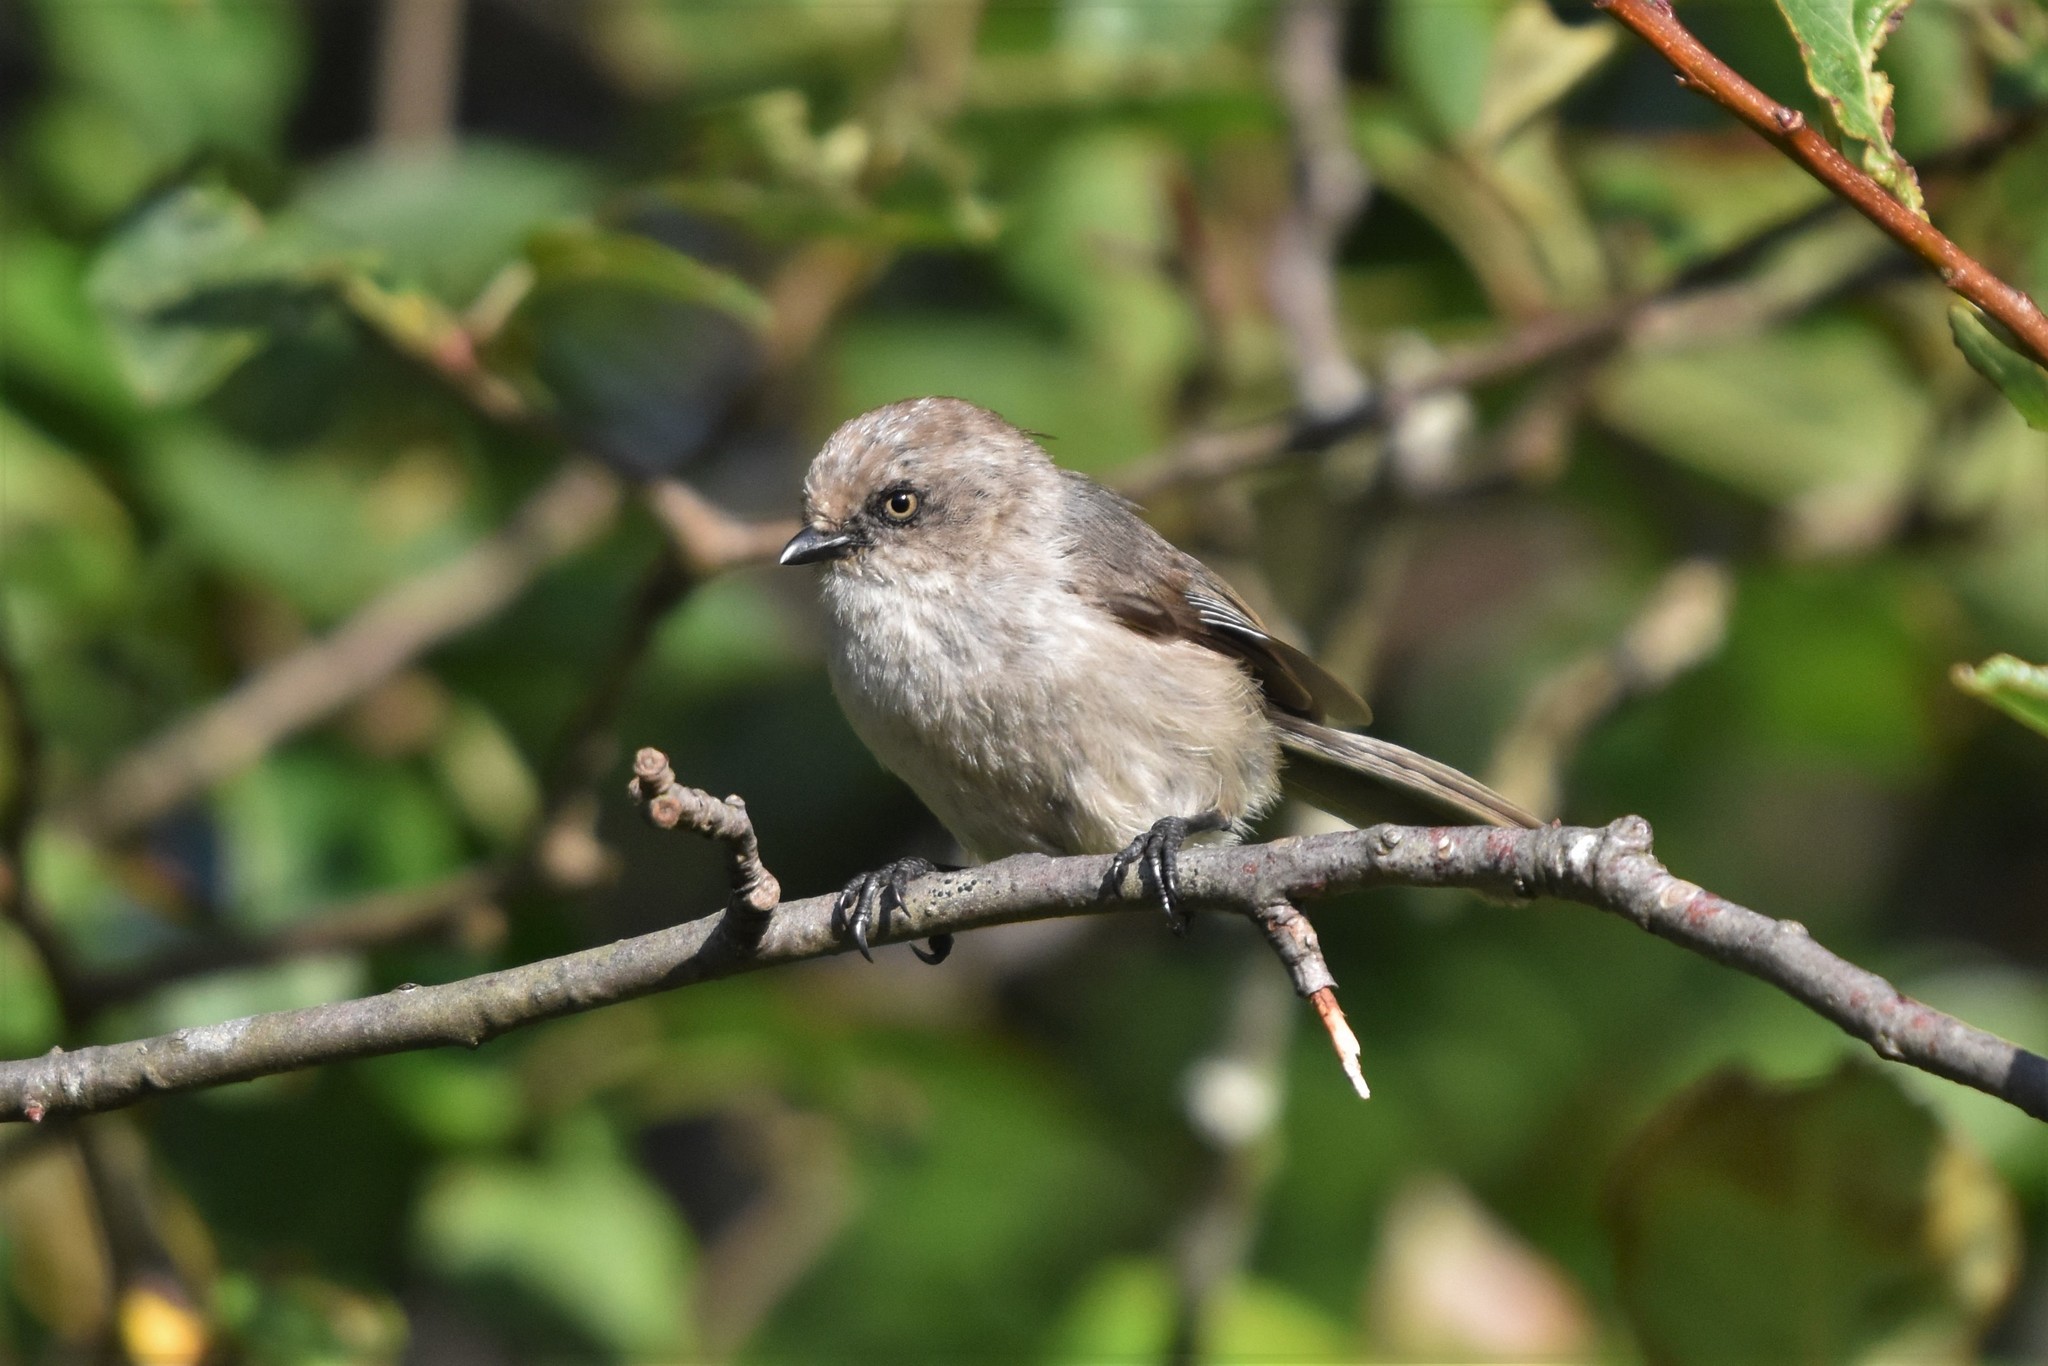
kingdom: Animalia
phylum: Chordata
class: Aves
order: Passeriformes
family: Aegithalidae
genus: Psaltriparus
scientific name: Psaltriparus minimus
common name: American bushtit
